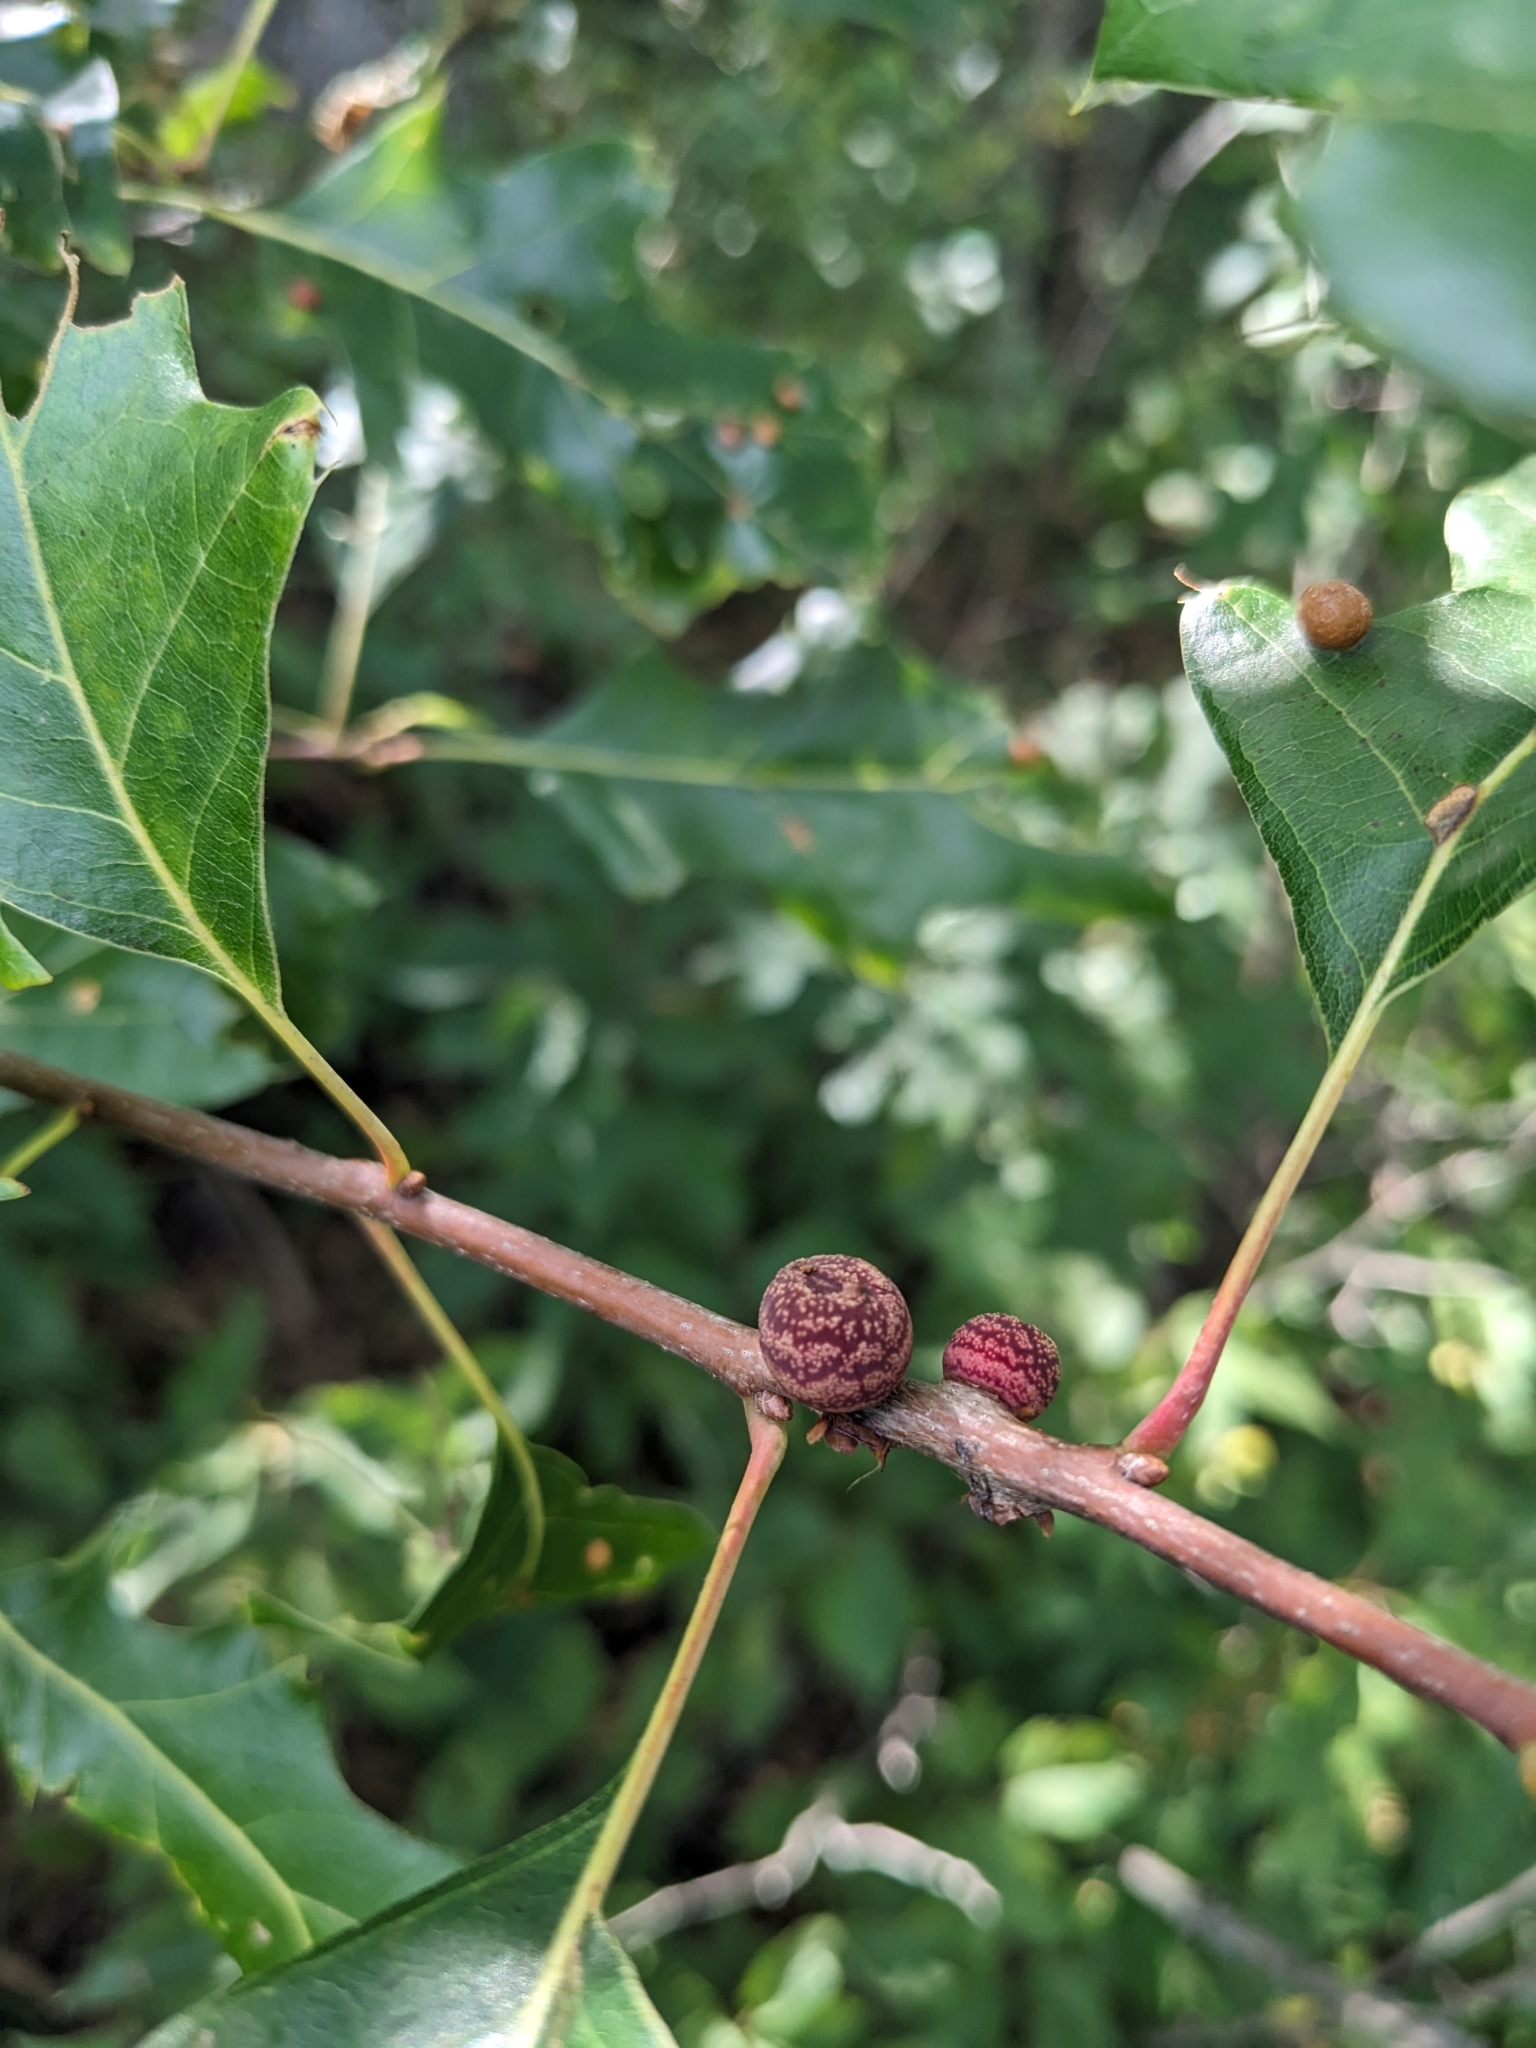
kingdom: Animalia
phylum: Arthropoda
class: Insecta
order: Hymenoptera
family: Cynipidae
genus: Kokkocynips
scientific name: Kokkocynips imbricariae
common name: Banded bullet gall wasp
